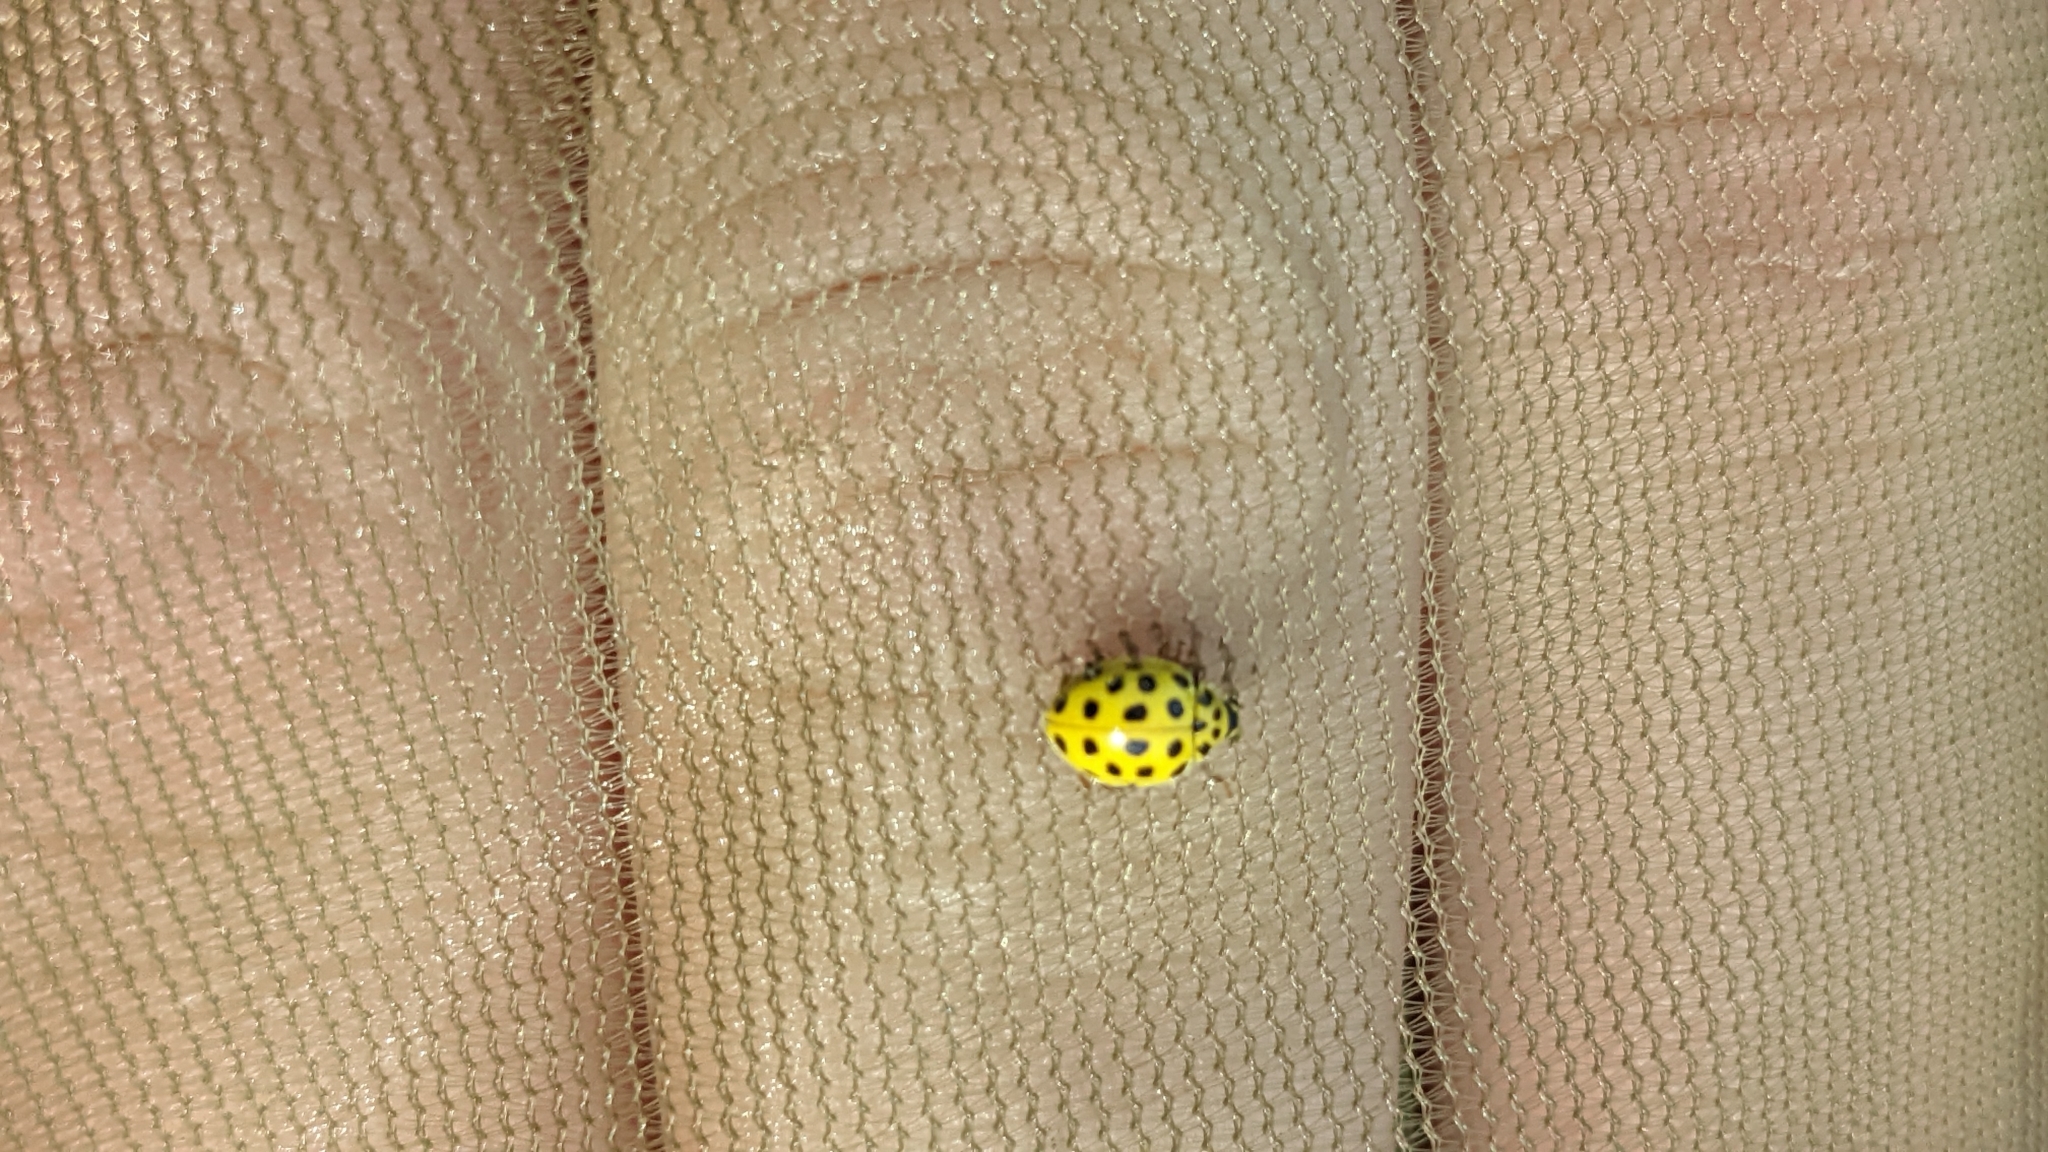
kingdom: Animalia
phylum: Arthropoda
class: Insecta
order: Coleoptera
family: Coccinellidae
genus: Psyllobora
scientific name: Psyllobora vigintiduopunctata
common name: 22-spot ladybird
